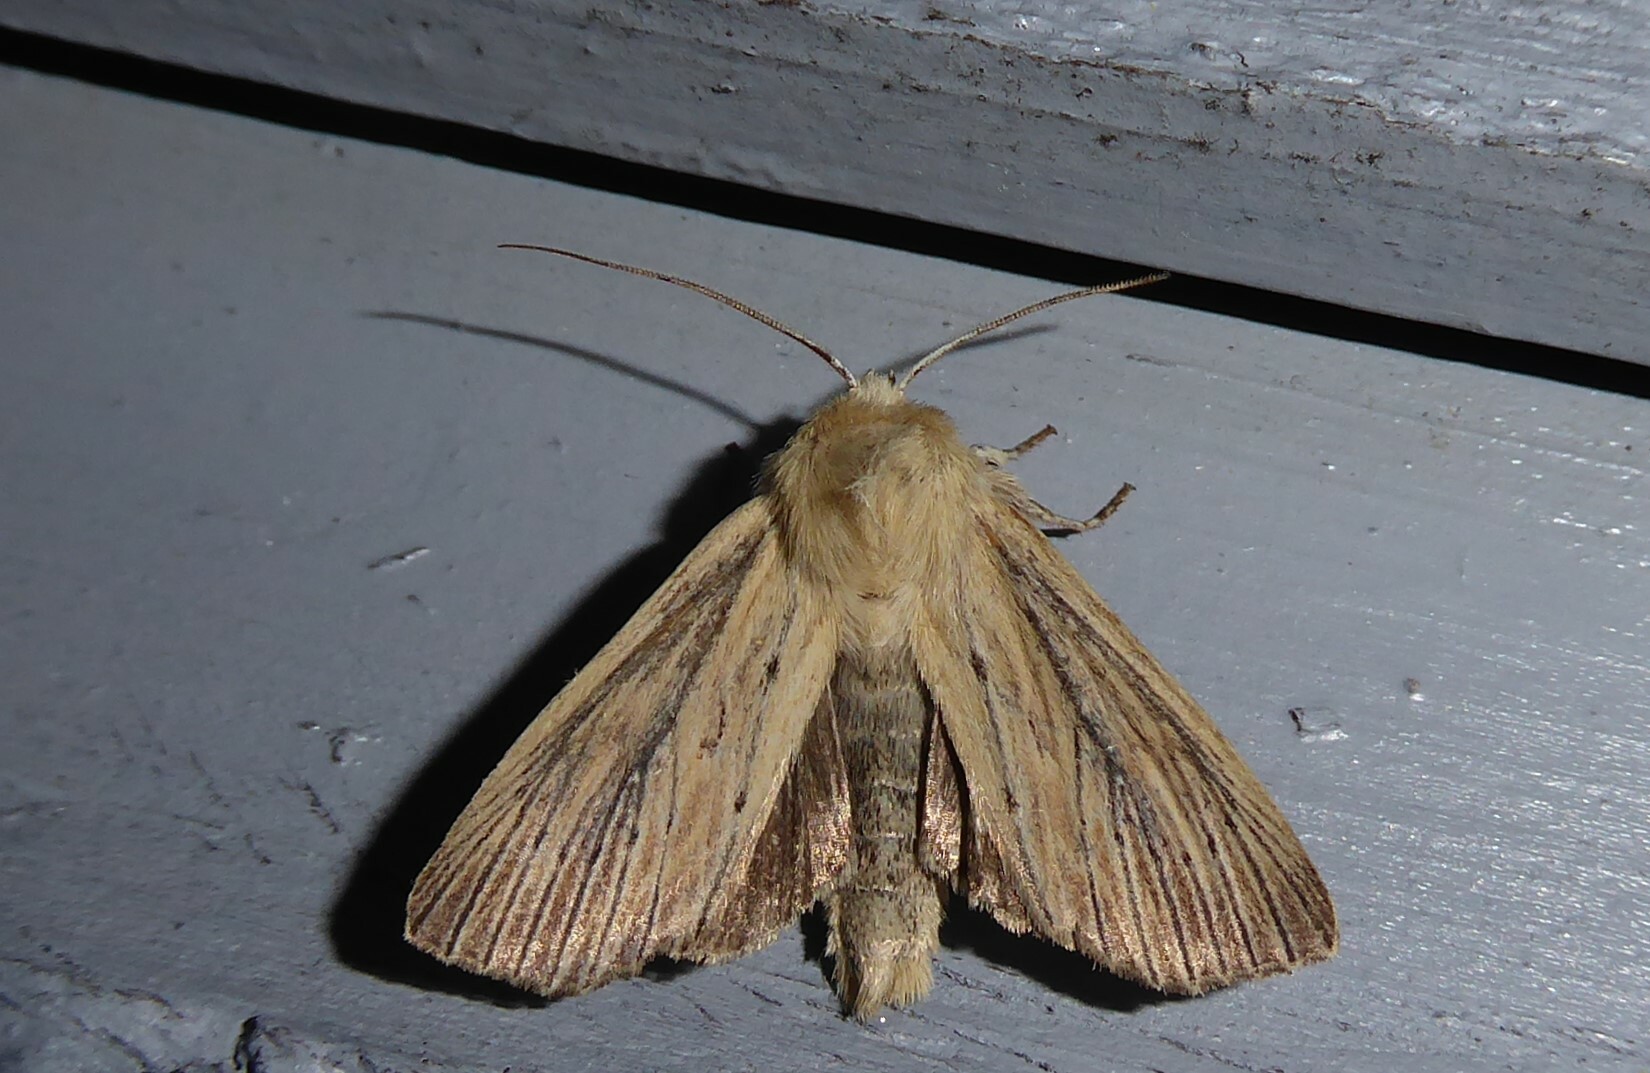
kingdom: Animalia
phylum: Arthropoda
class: Insecta
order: Lepidoptera
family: Noctuidae
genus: Ichneutica
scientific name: Ichneutica arotis
